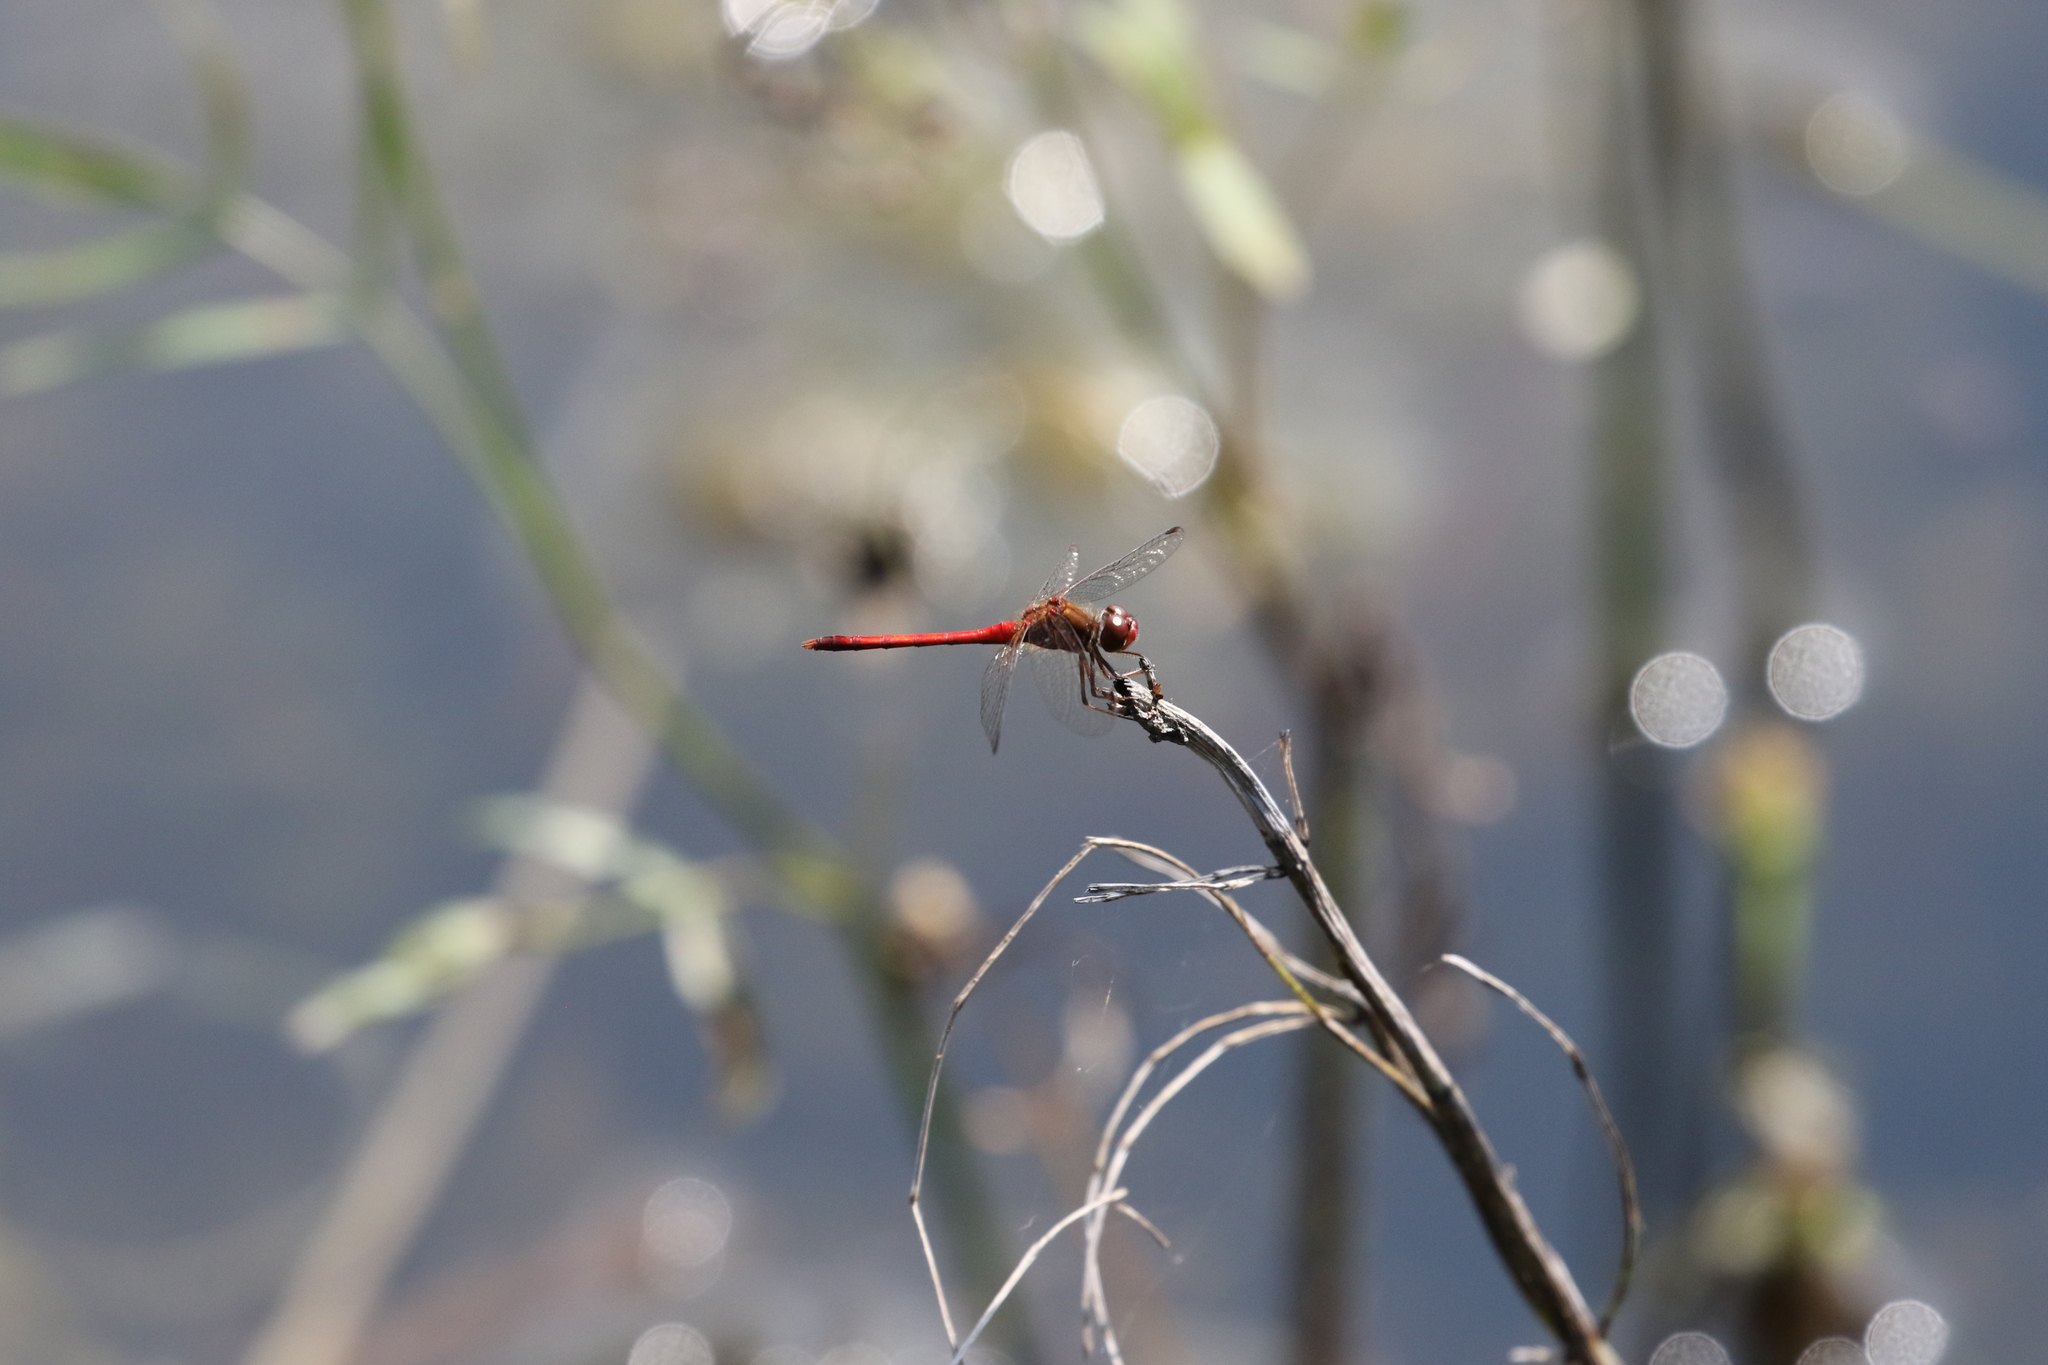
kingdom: Animalia
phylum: Arthropoda
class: Insecta
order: Odonata
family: Libellulidae
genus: Sympetrum
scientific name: Sympetrum vicinum
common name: Autumn meadowhawk
